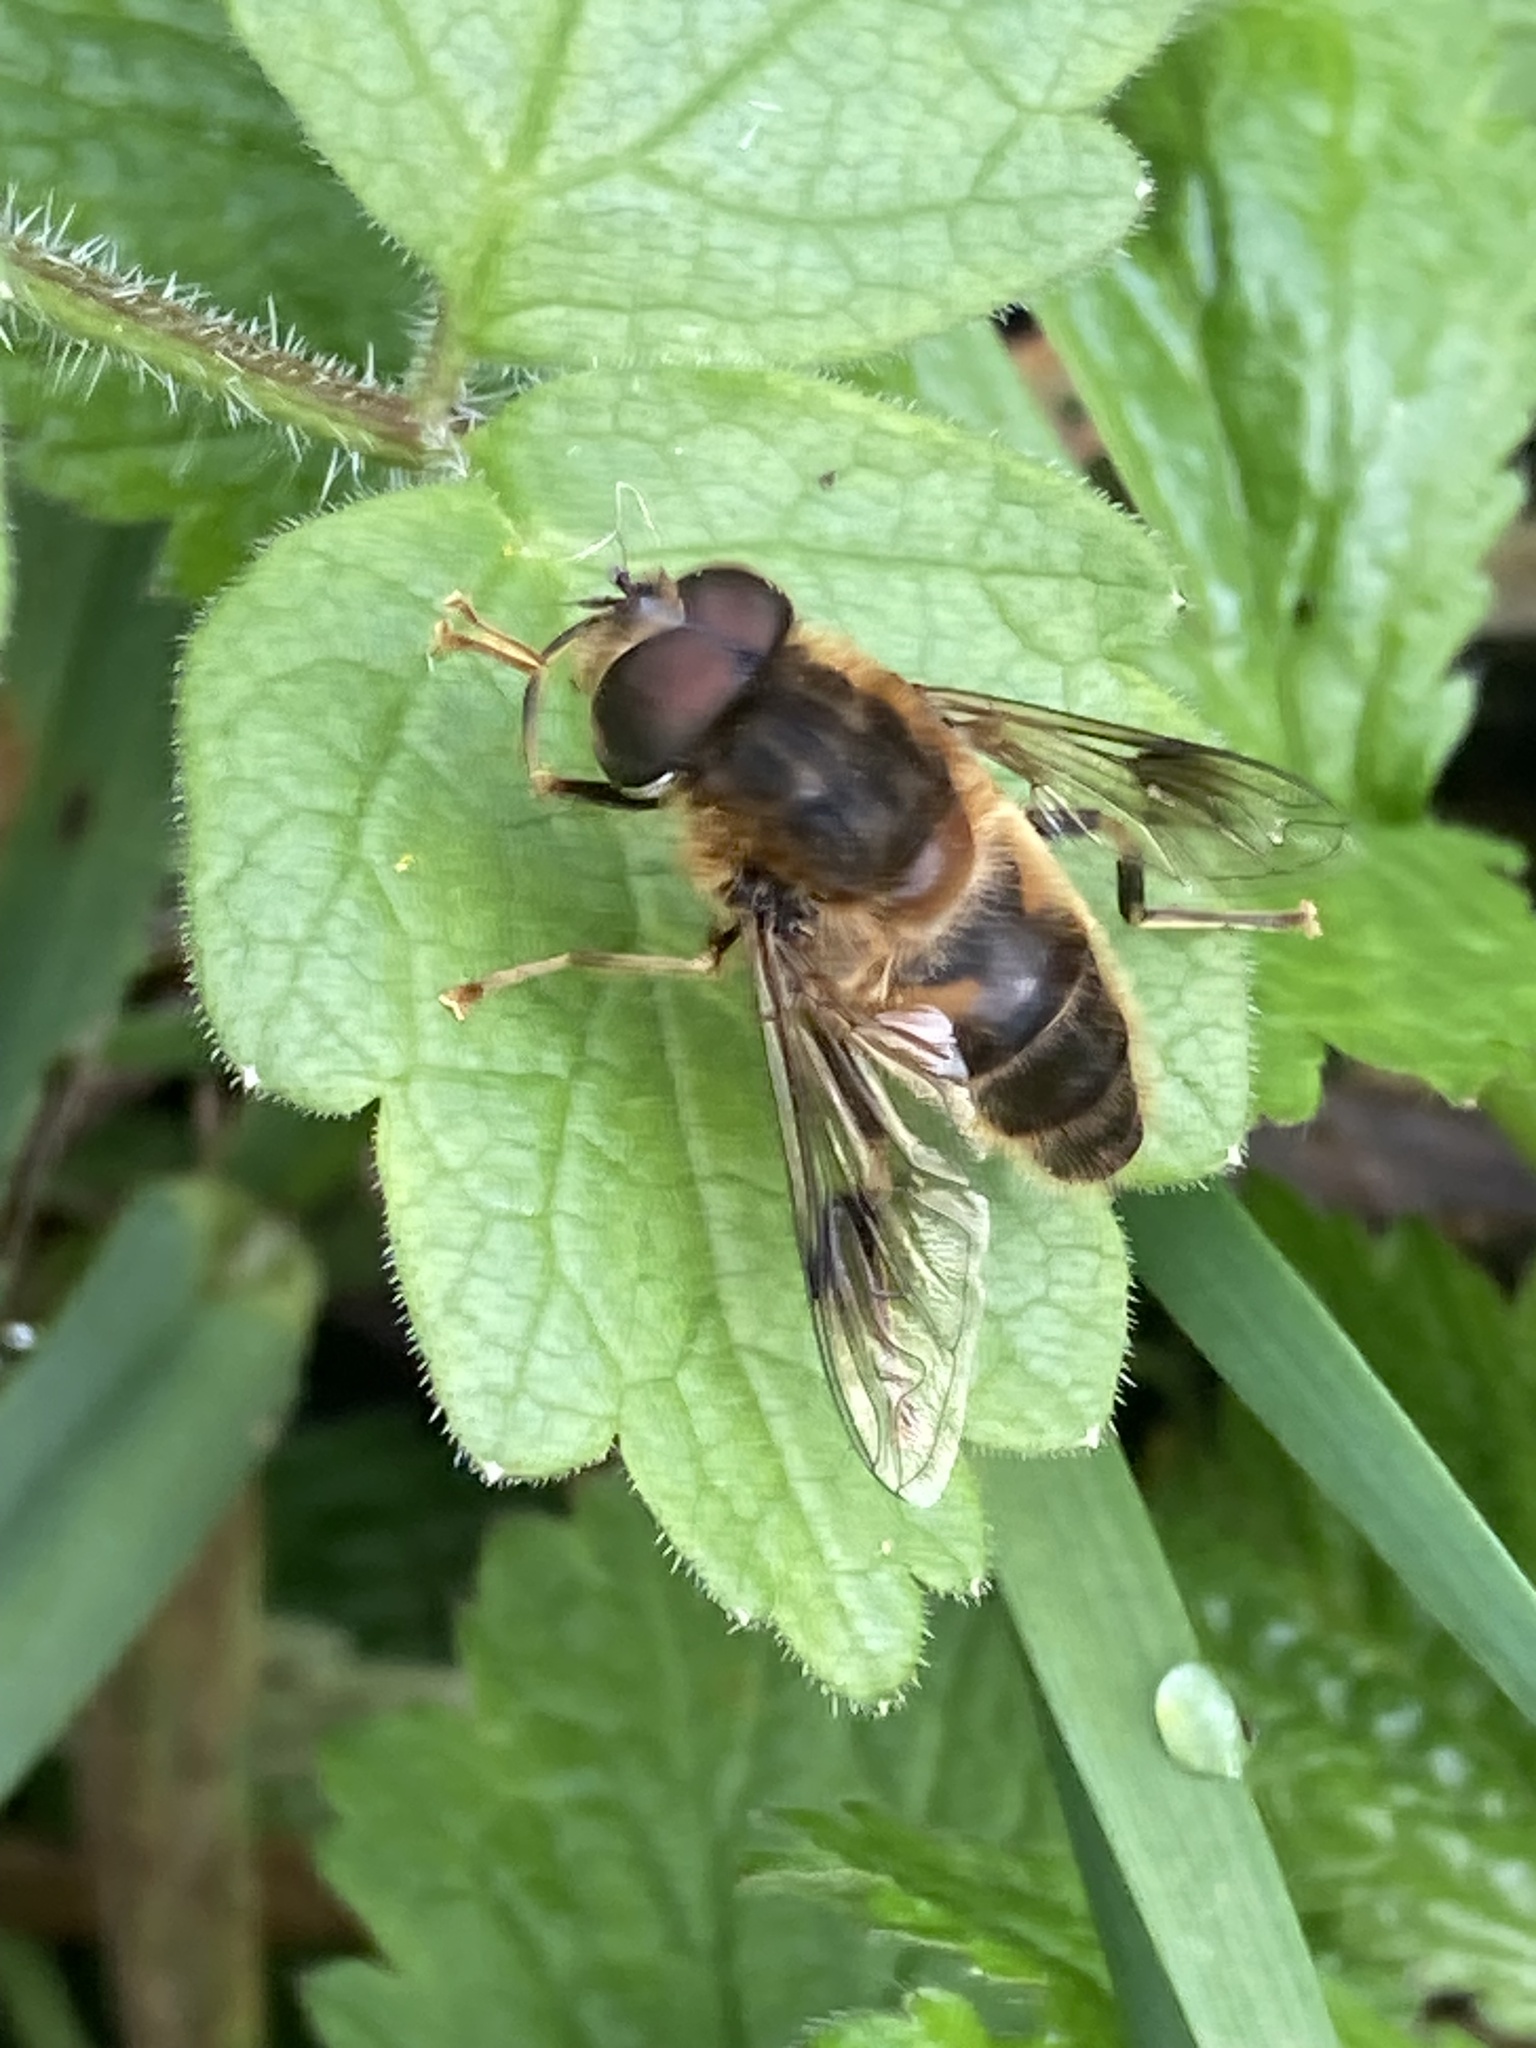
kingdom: Animalia
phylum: Arthropoda
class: Insecta
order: Diptera
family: Syrphidae
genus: Eristalis
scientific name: Eristalis pertinax
